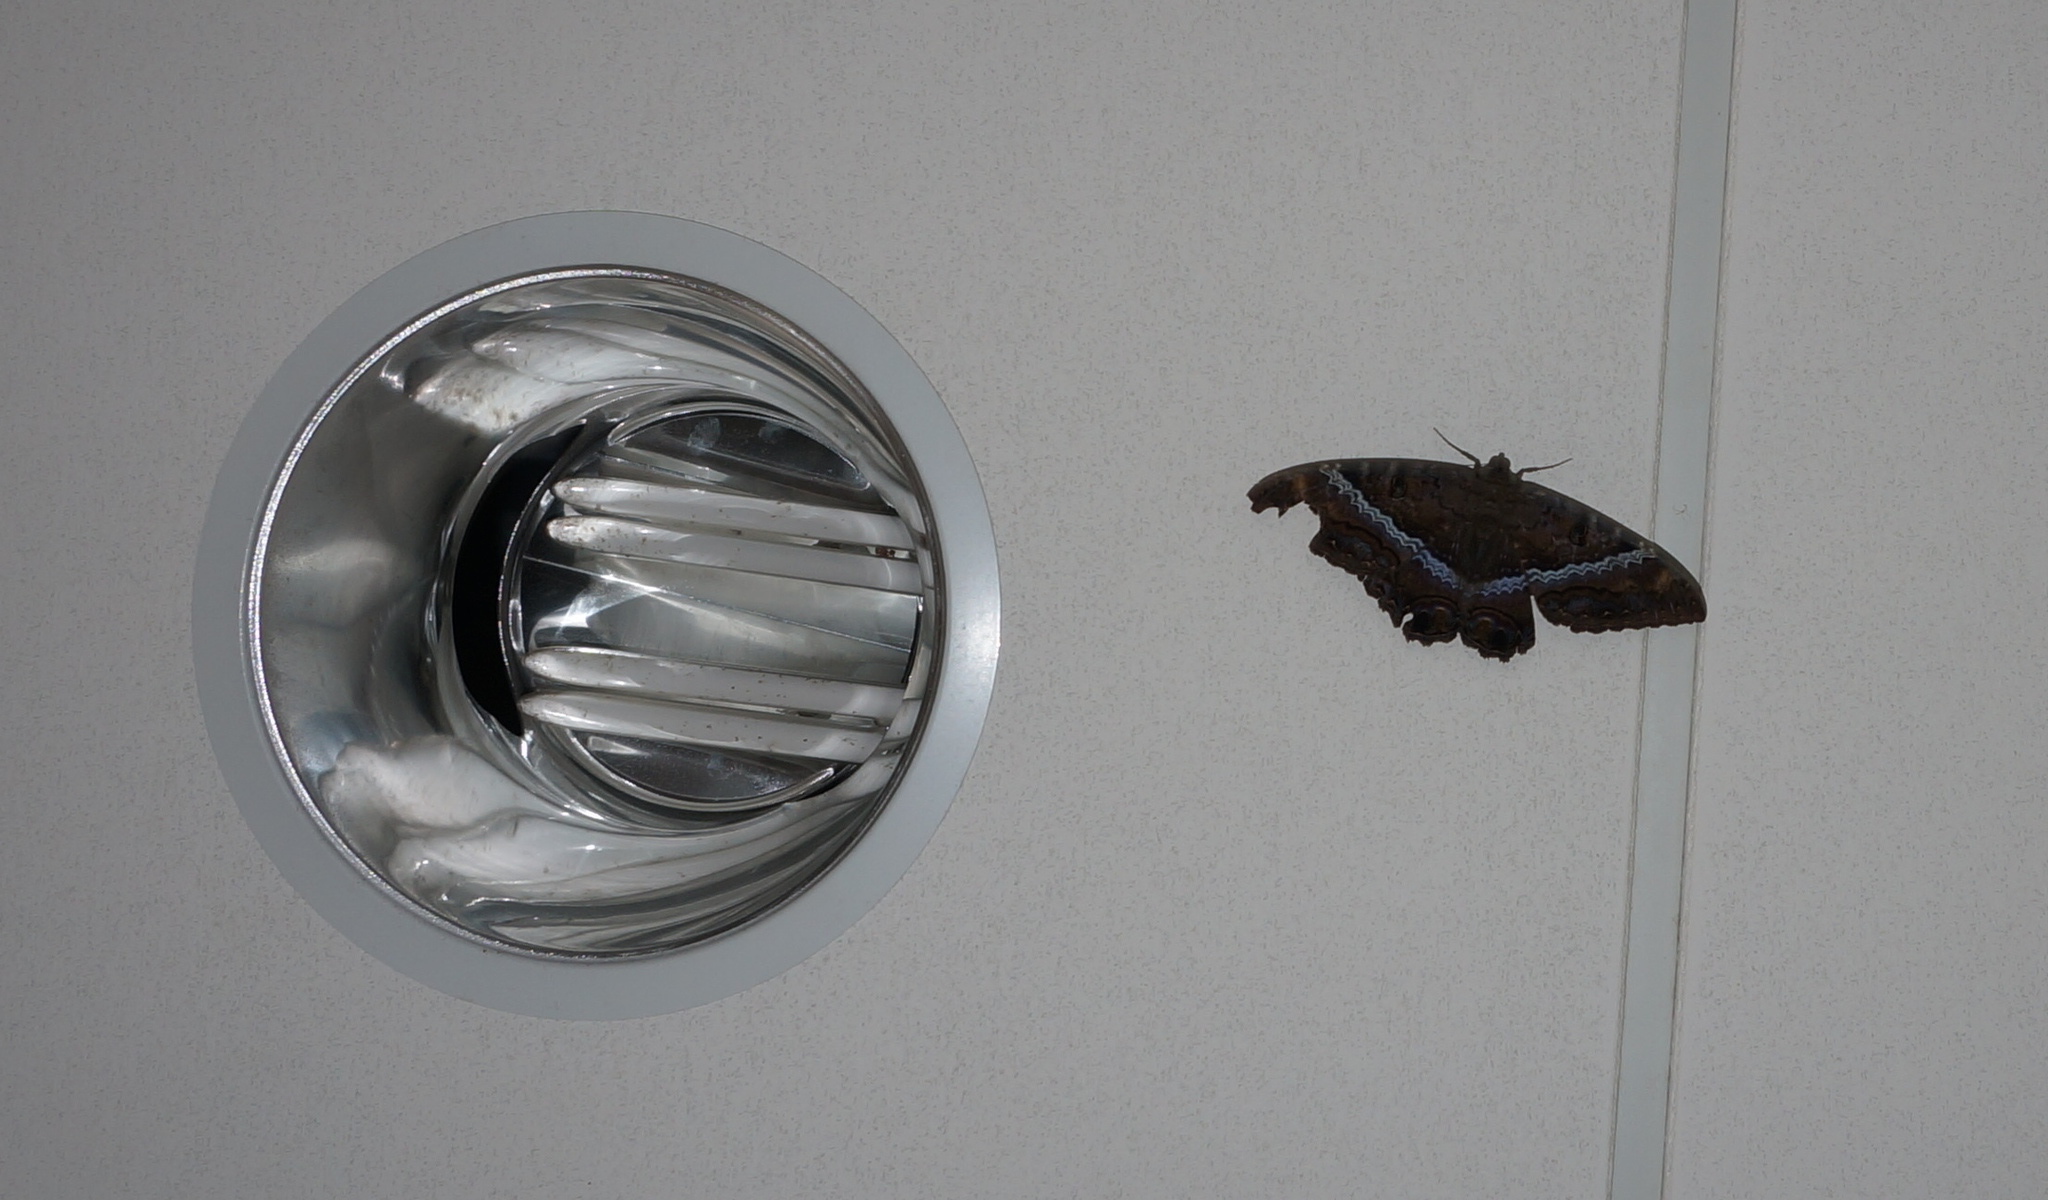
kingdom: Animalia
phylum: Arthropoda
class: Insecta
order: Lepidoptera
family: Erebidae
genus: Ascalapha
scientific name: Ascalapha odorata
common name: Black witch
